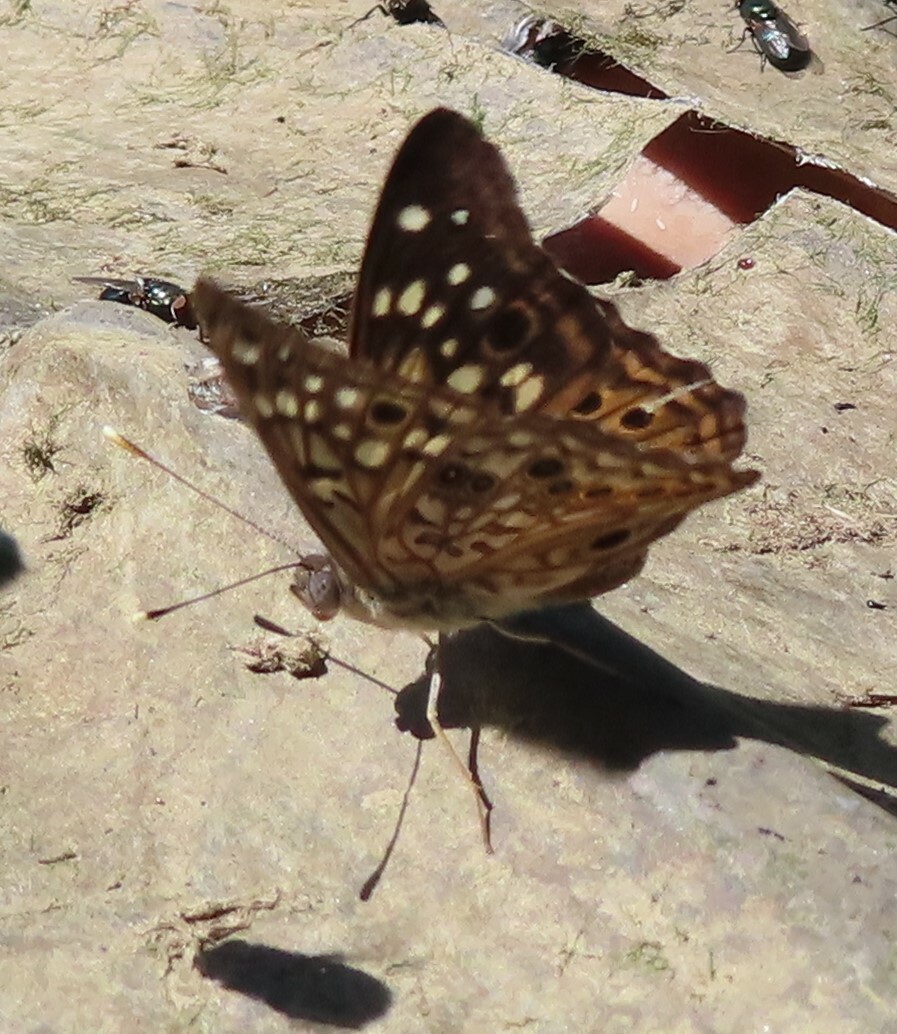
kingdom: Animalia
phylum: Arthropoda
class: Insecta
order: Lepidoptera
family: Nymphalidae
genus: Asterocampa
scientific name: Asterocampa celtis
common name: Hackberry emperor
